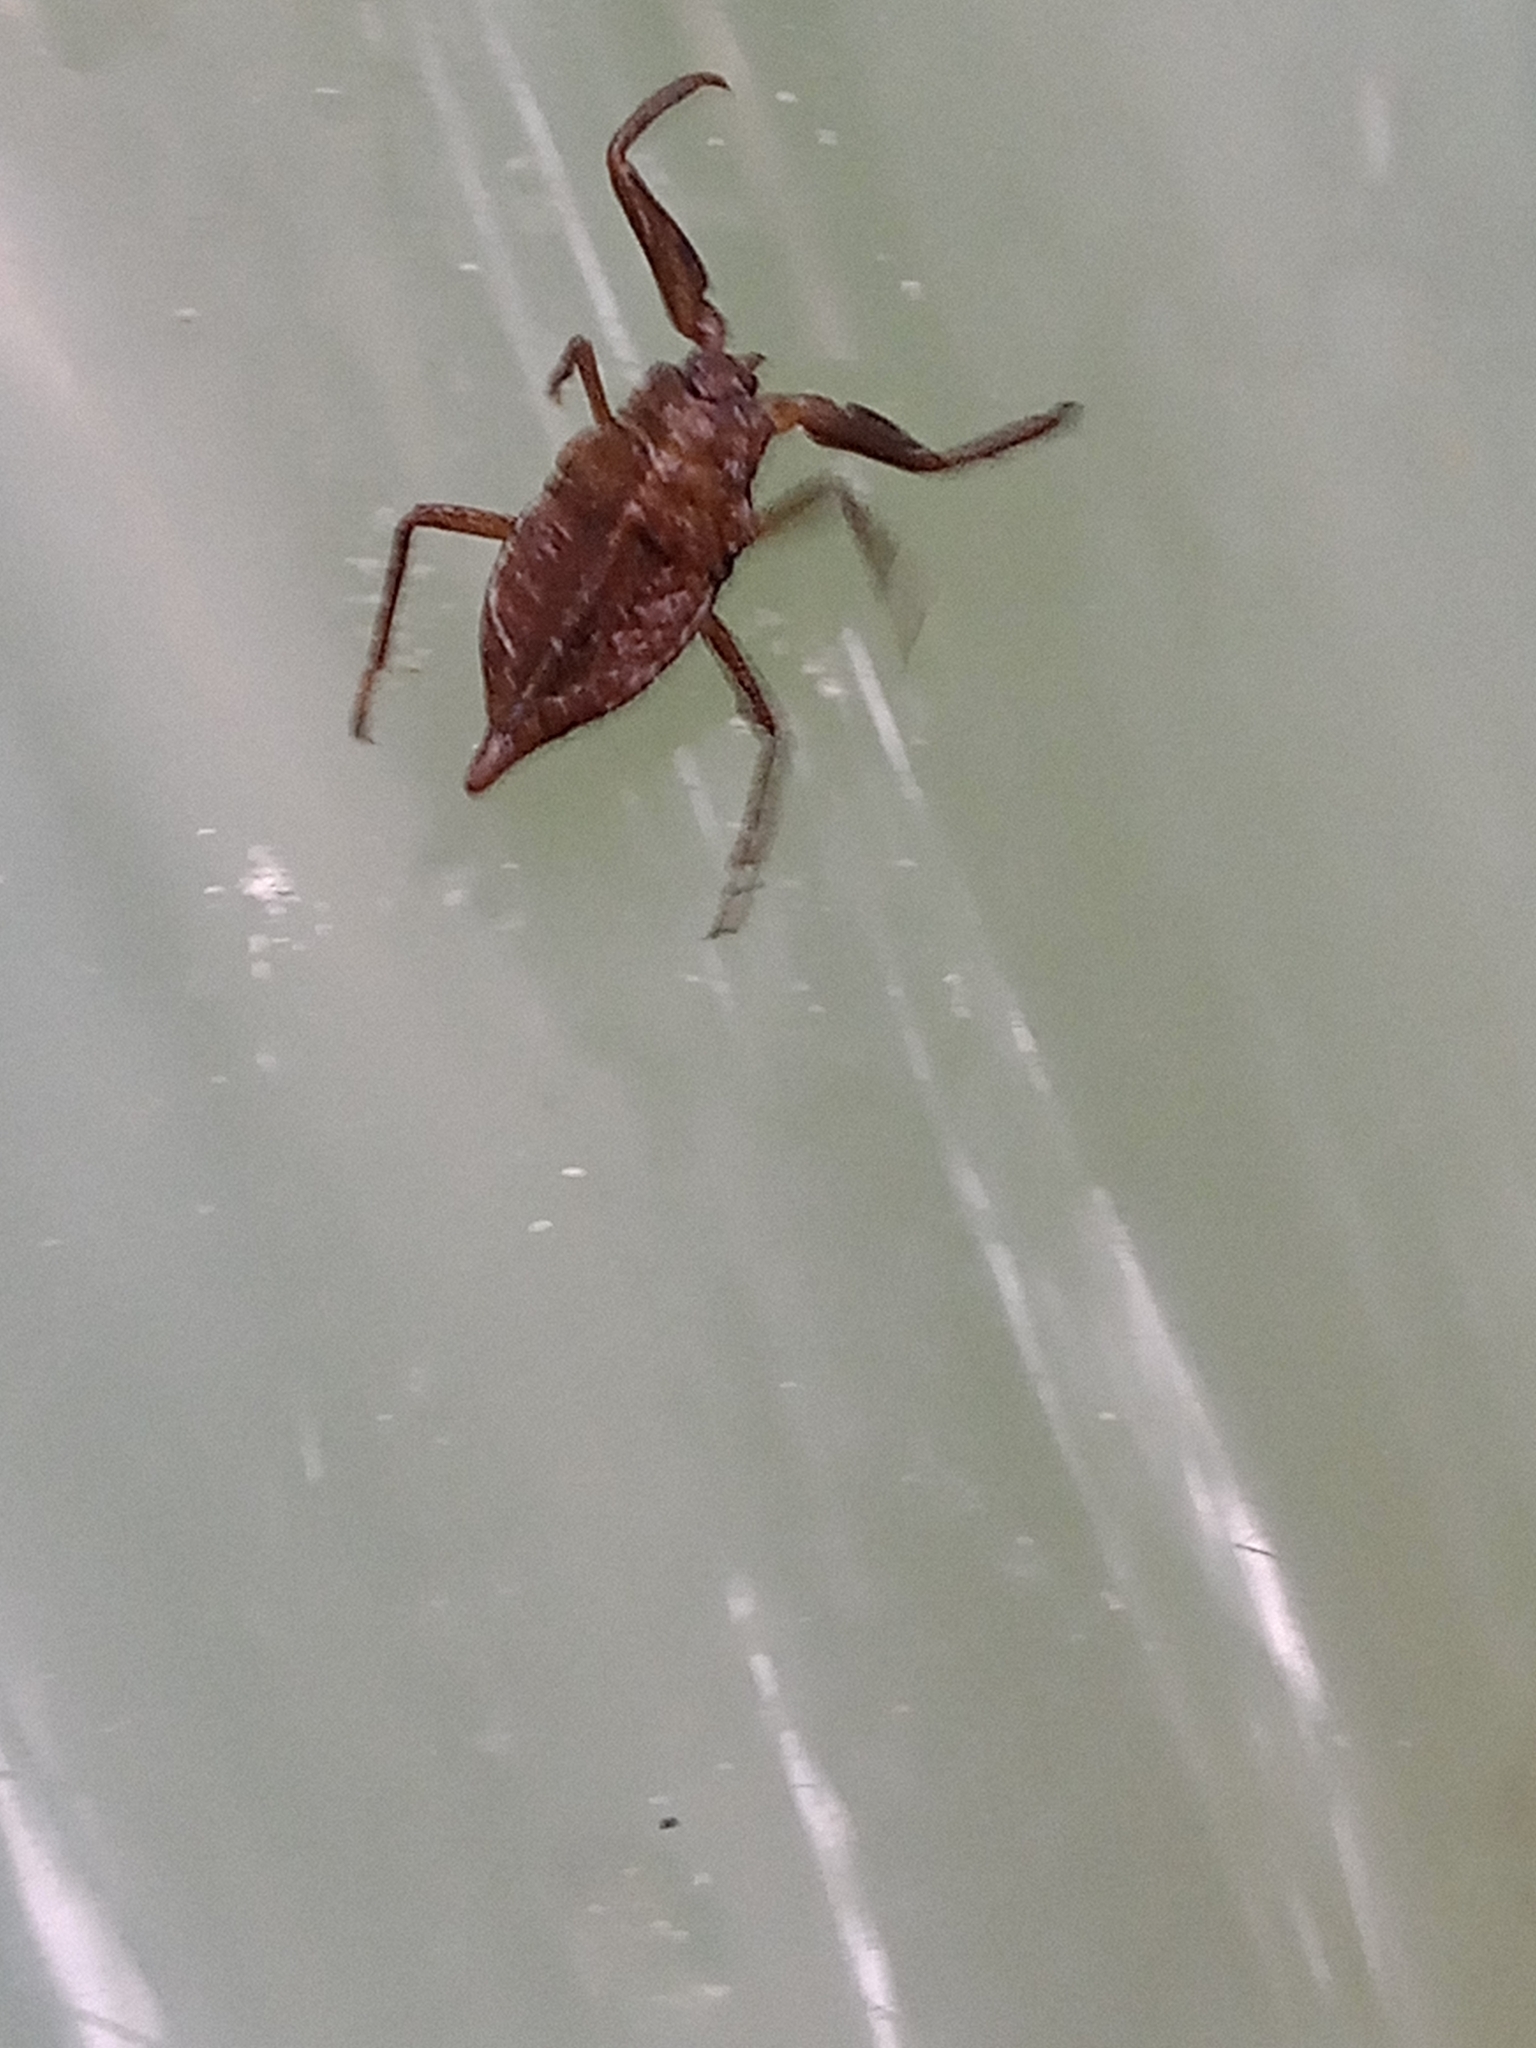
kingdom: Animalia
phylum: Arthropoda
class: Insecta
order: Hemiptera
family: Nepidae
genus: Nepa
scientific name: Nepa cinerea
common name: Water scorpion
